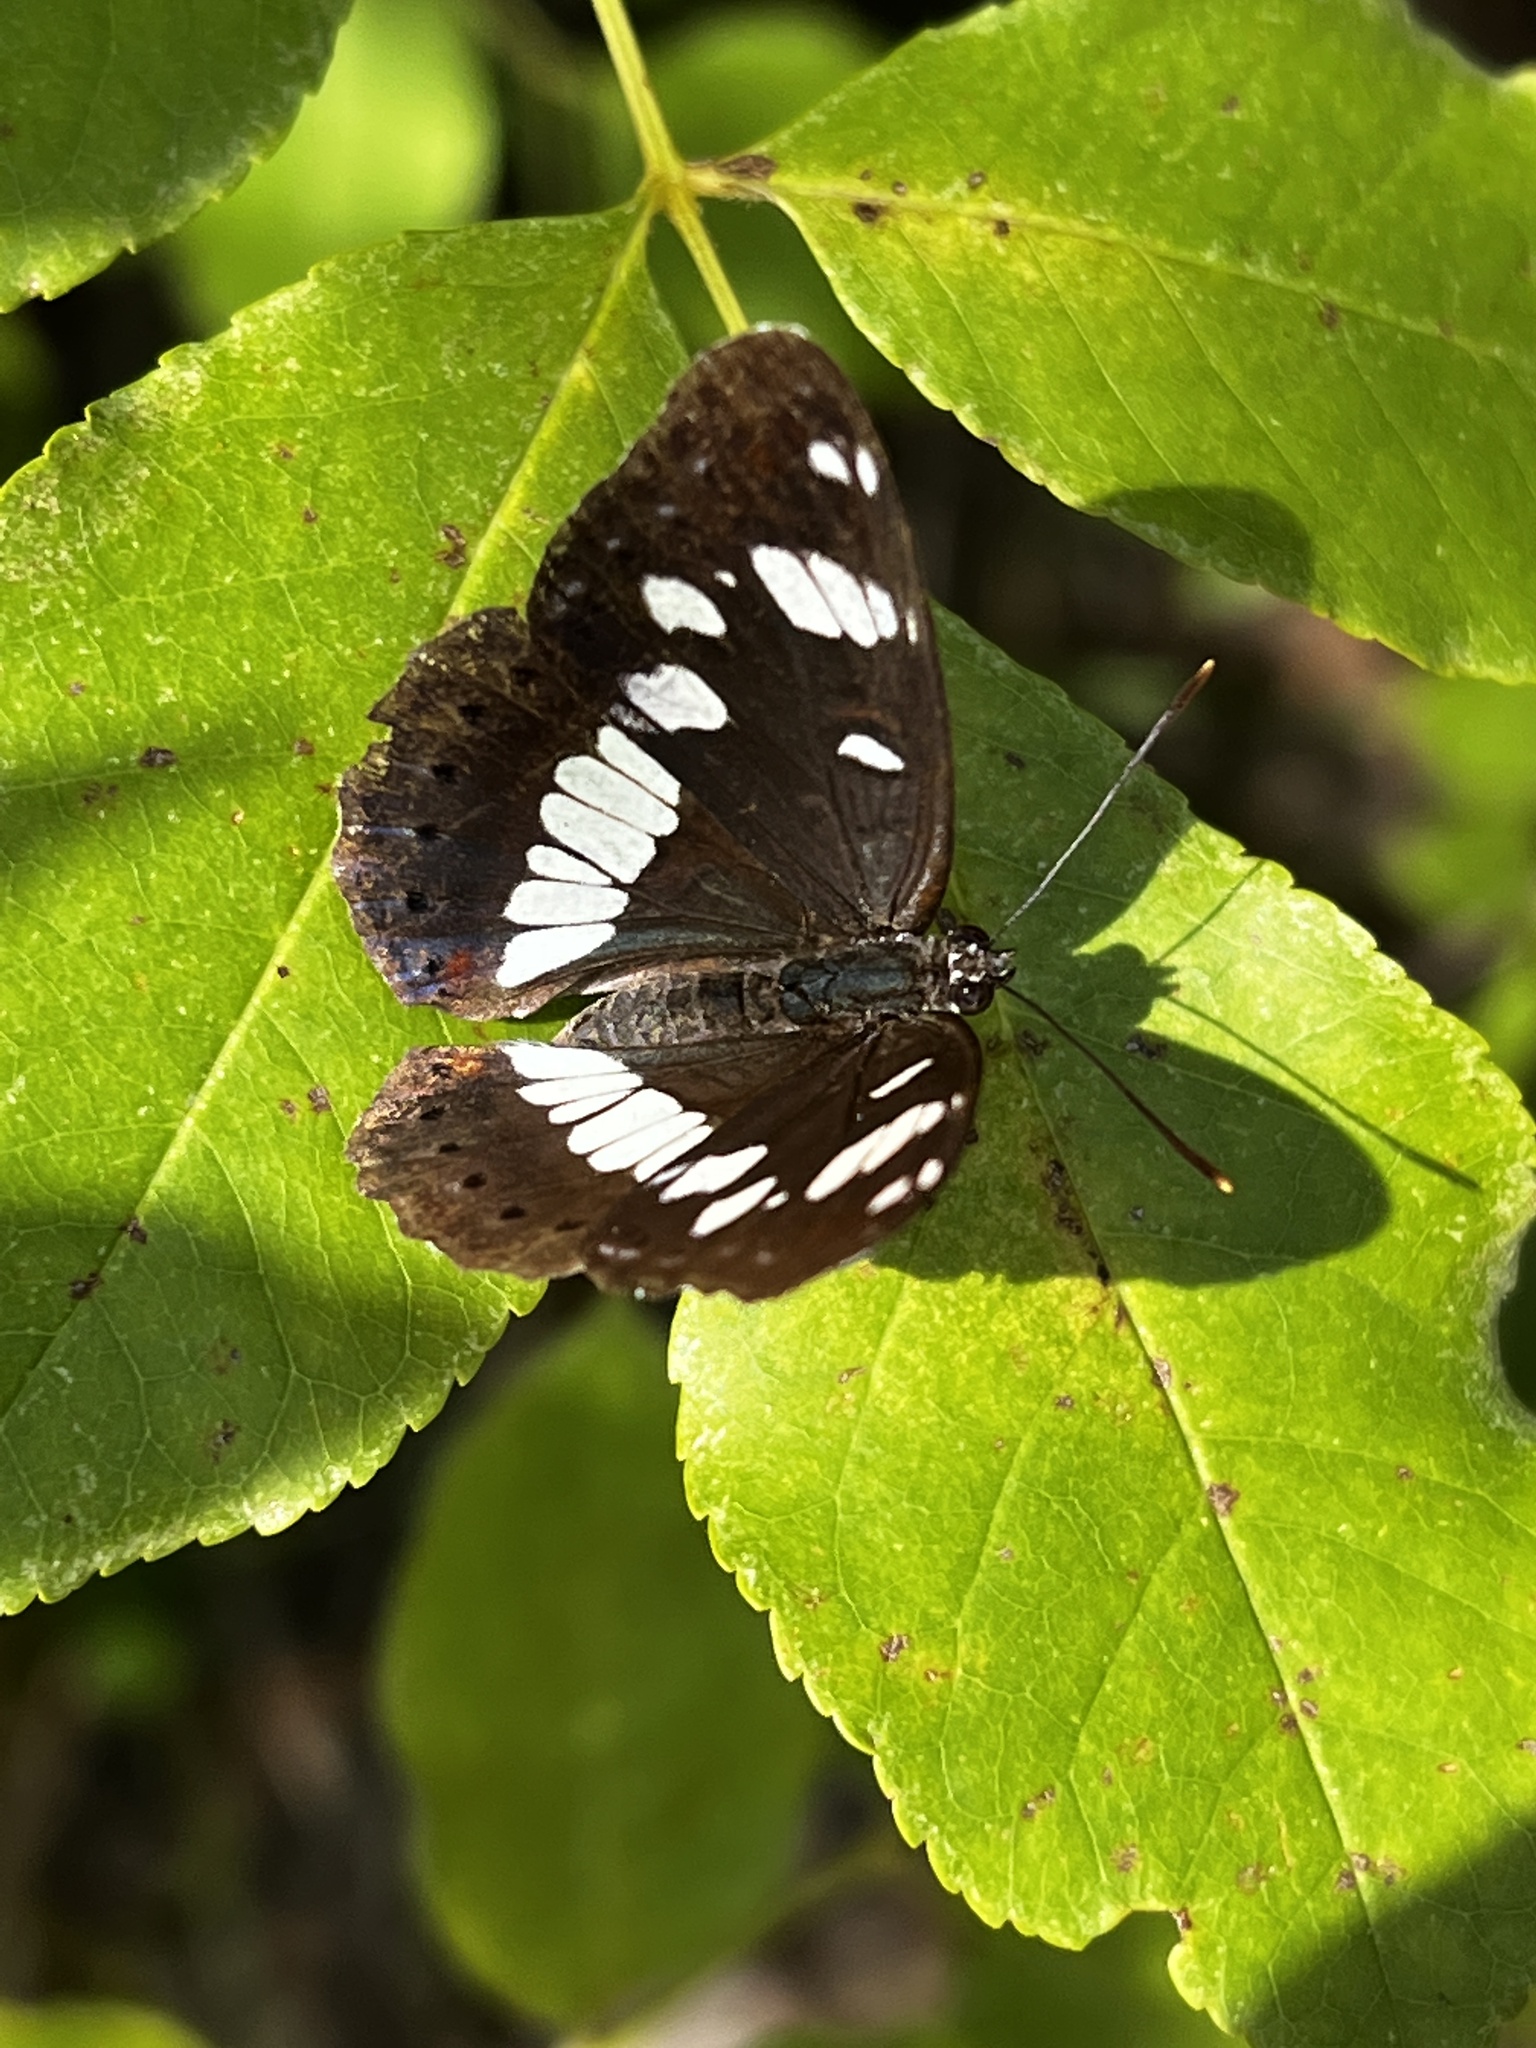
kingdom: Animalia
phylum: Arthropoda
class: Insecta
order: Lepidoptera
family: Nymphalidae
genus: Limenitis
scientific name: Limenitis reducta
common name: Southern white admiral
